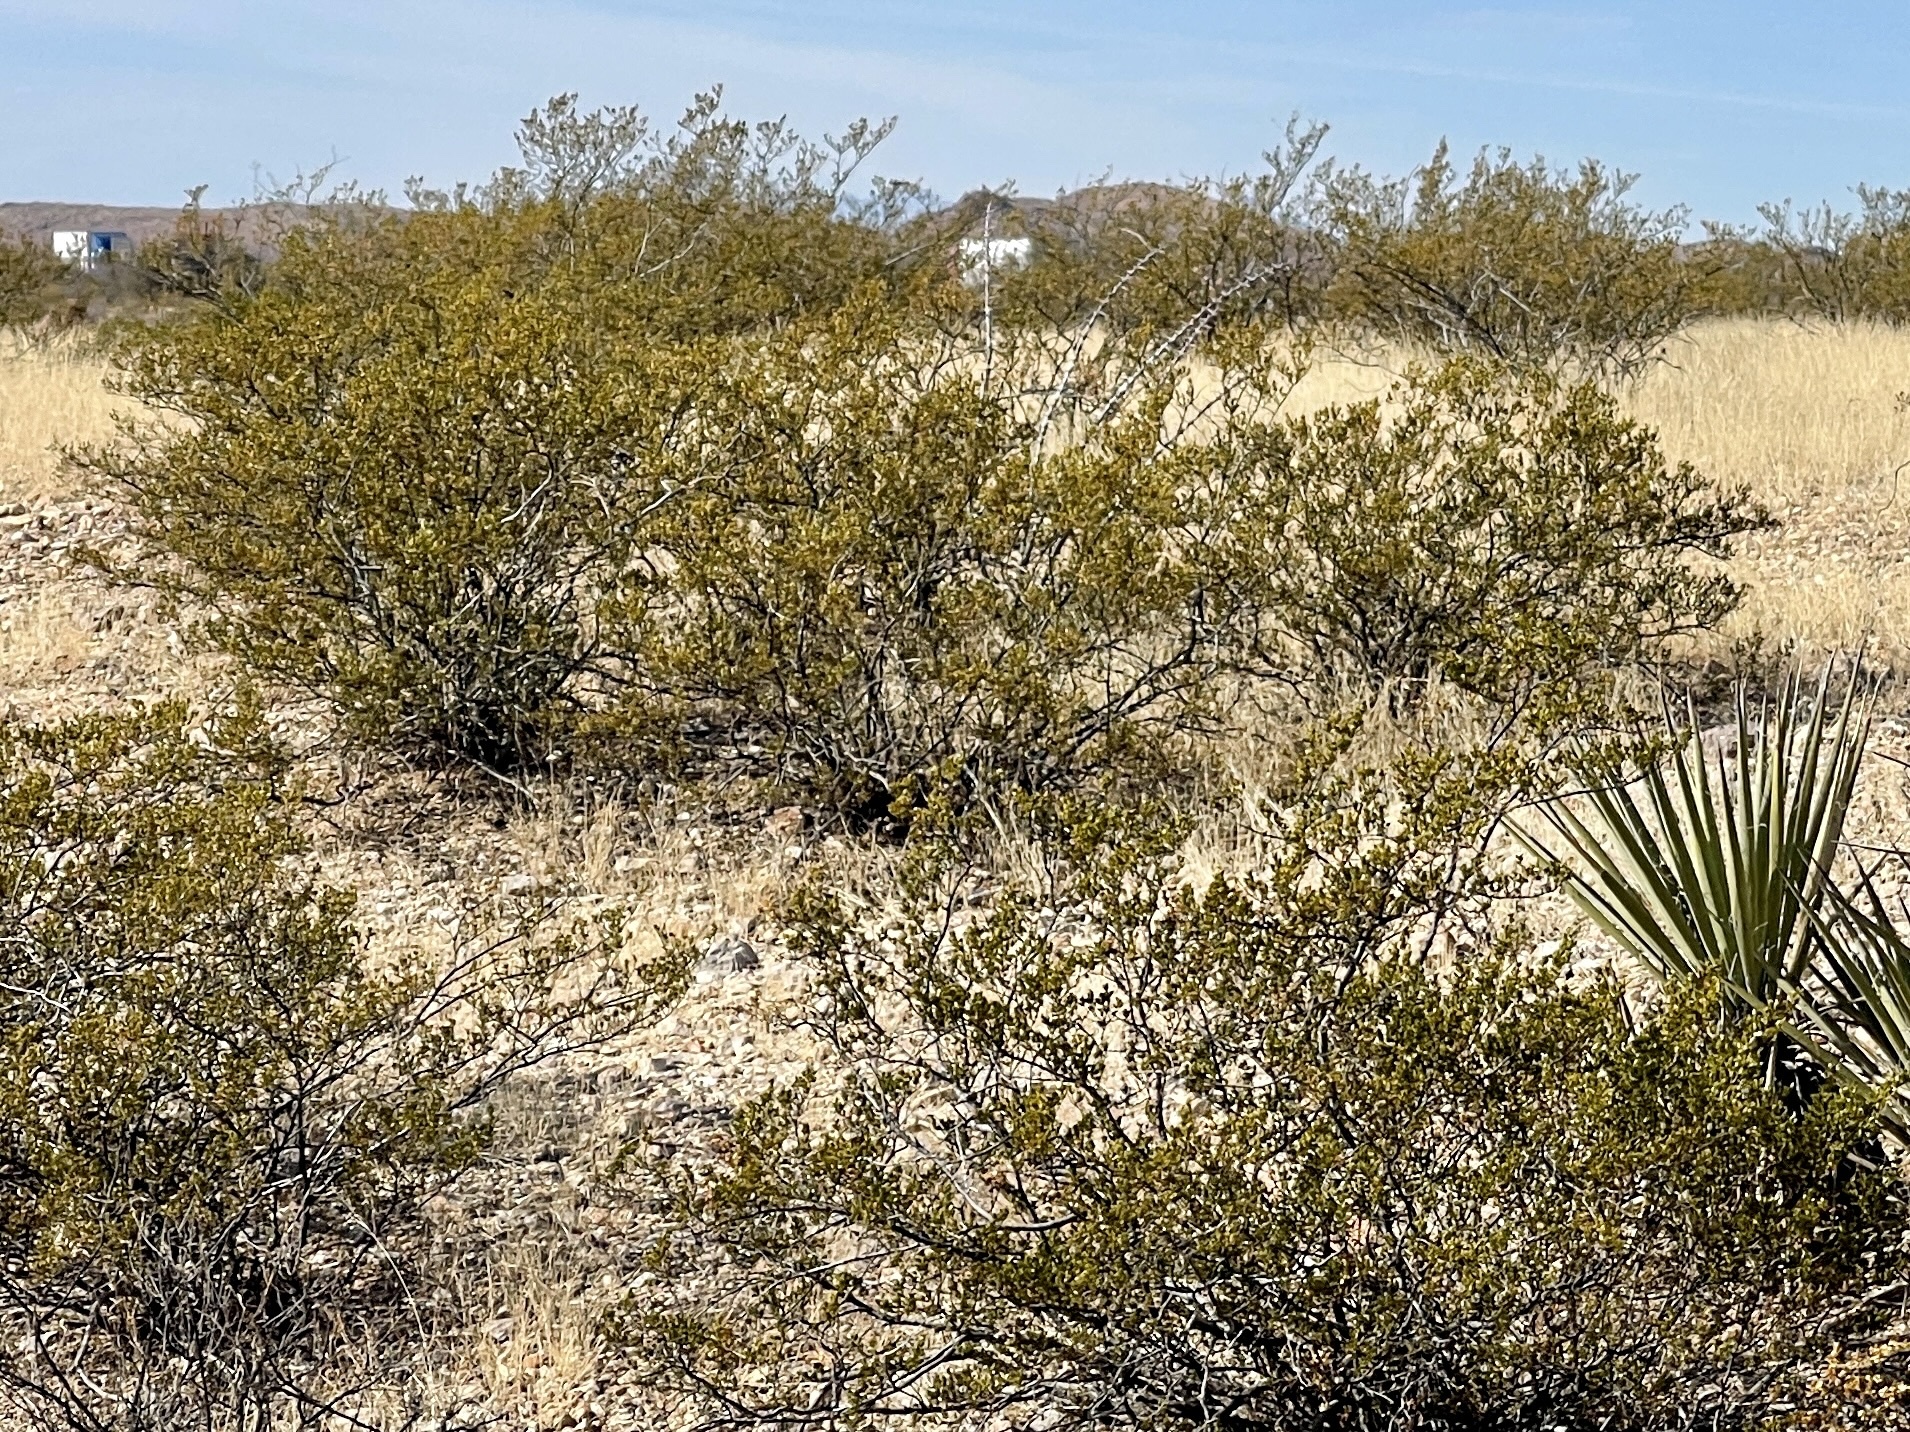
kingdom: Plantae
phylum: Tracheophyta
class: Magnoliopsida
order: Zygophyllales
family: Zygophyllaceae
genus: Larrea
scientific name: Larrea tridentata
